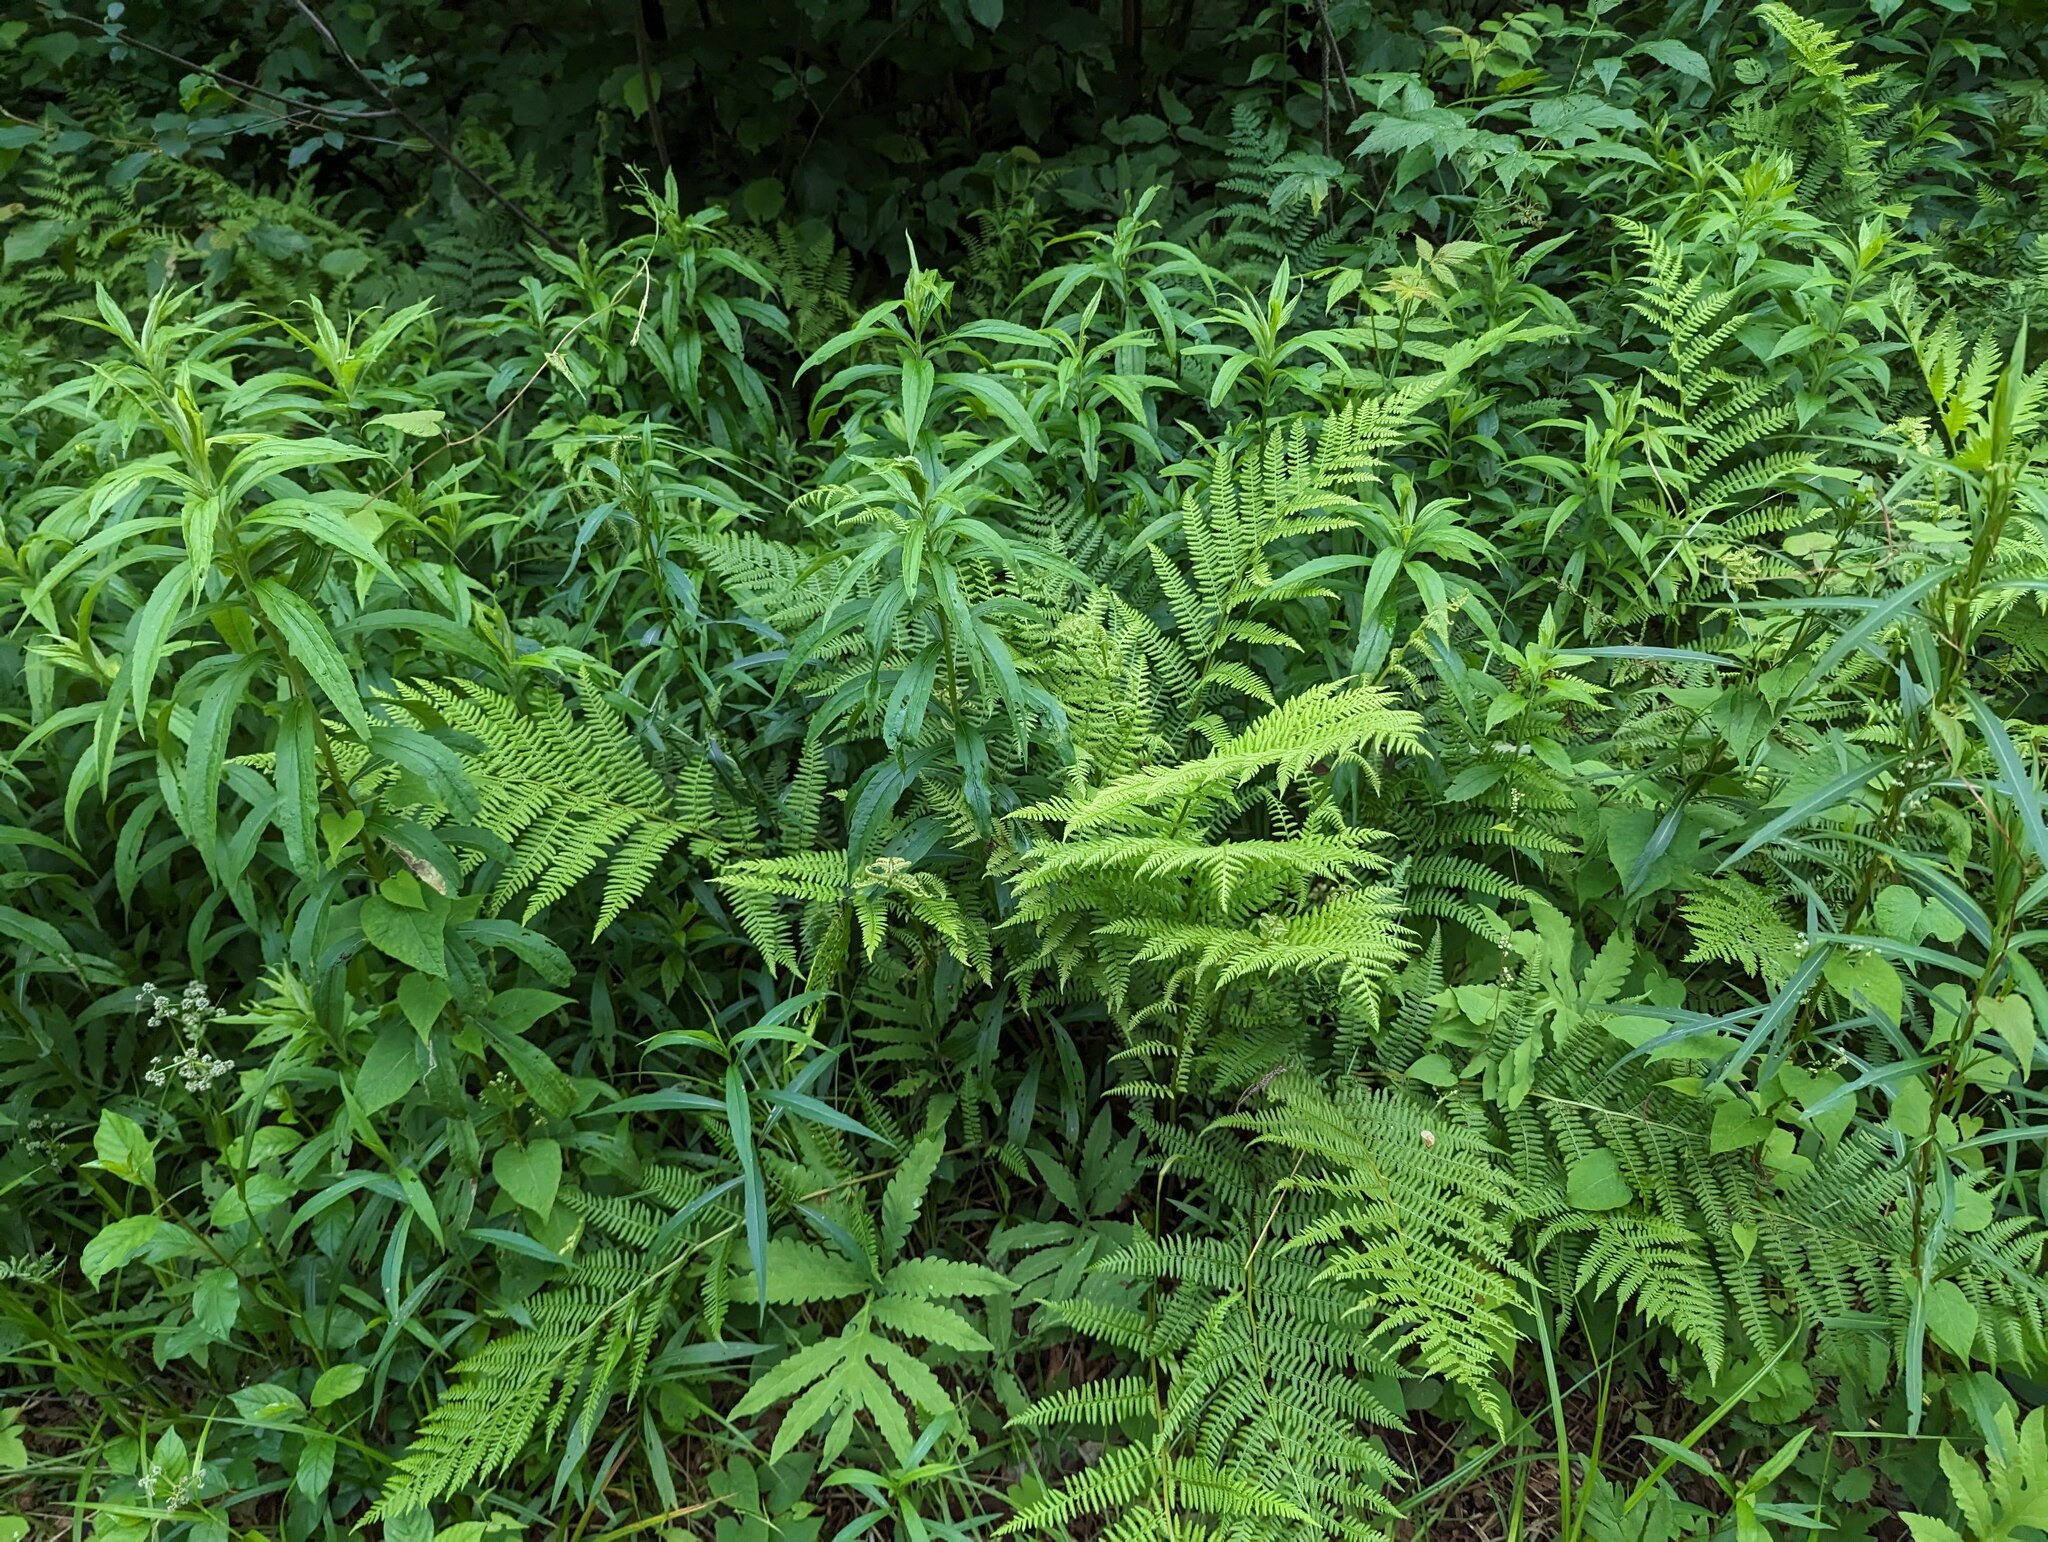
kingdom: Plantae
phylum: Tracheophyta
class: Polypodiopsida
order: Polypodiales
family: Athyriaceae
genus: Athyrium
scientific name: Athyrium angustum
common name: Northern lady fern
